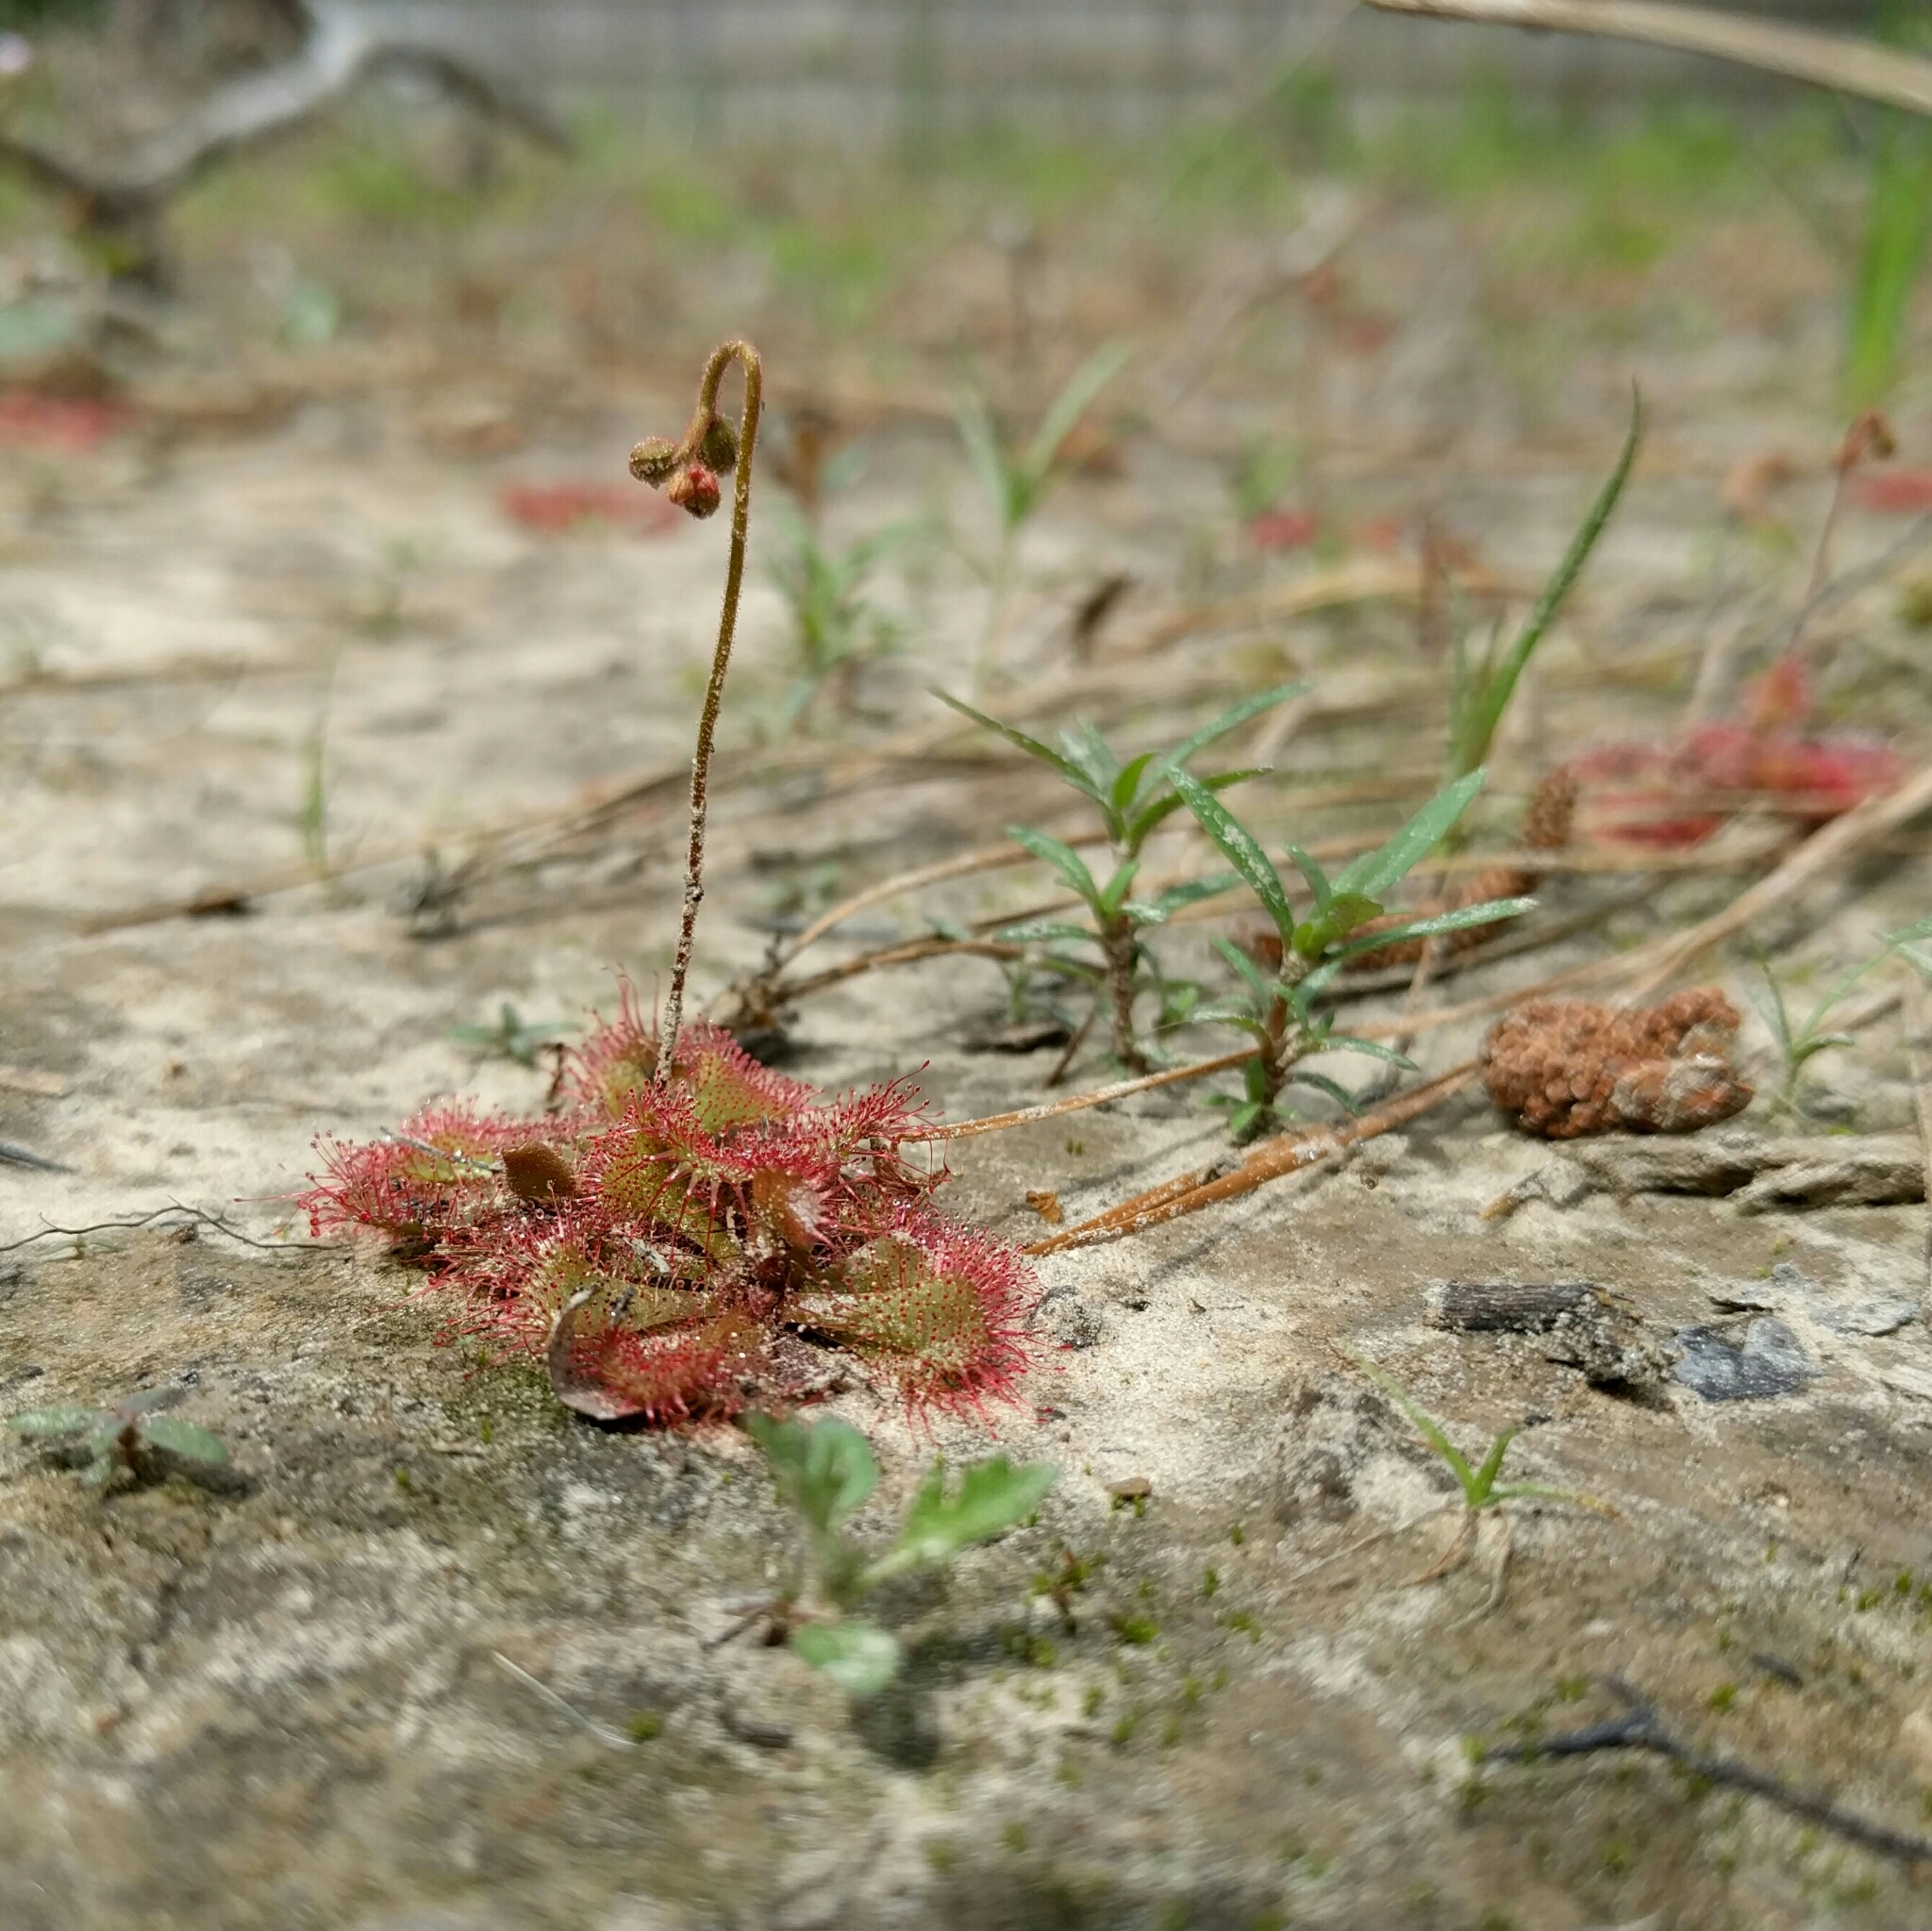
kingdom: Plantae
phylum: Tracheophyta
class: Magnoliopsida
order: Caryophyllales
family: Droseraceae
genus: Drosera
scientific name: Drosera brevifolia
